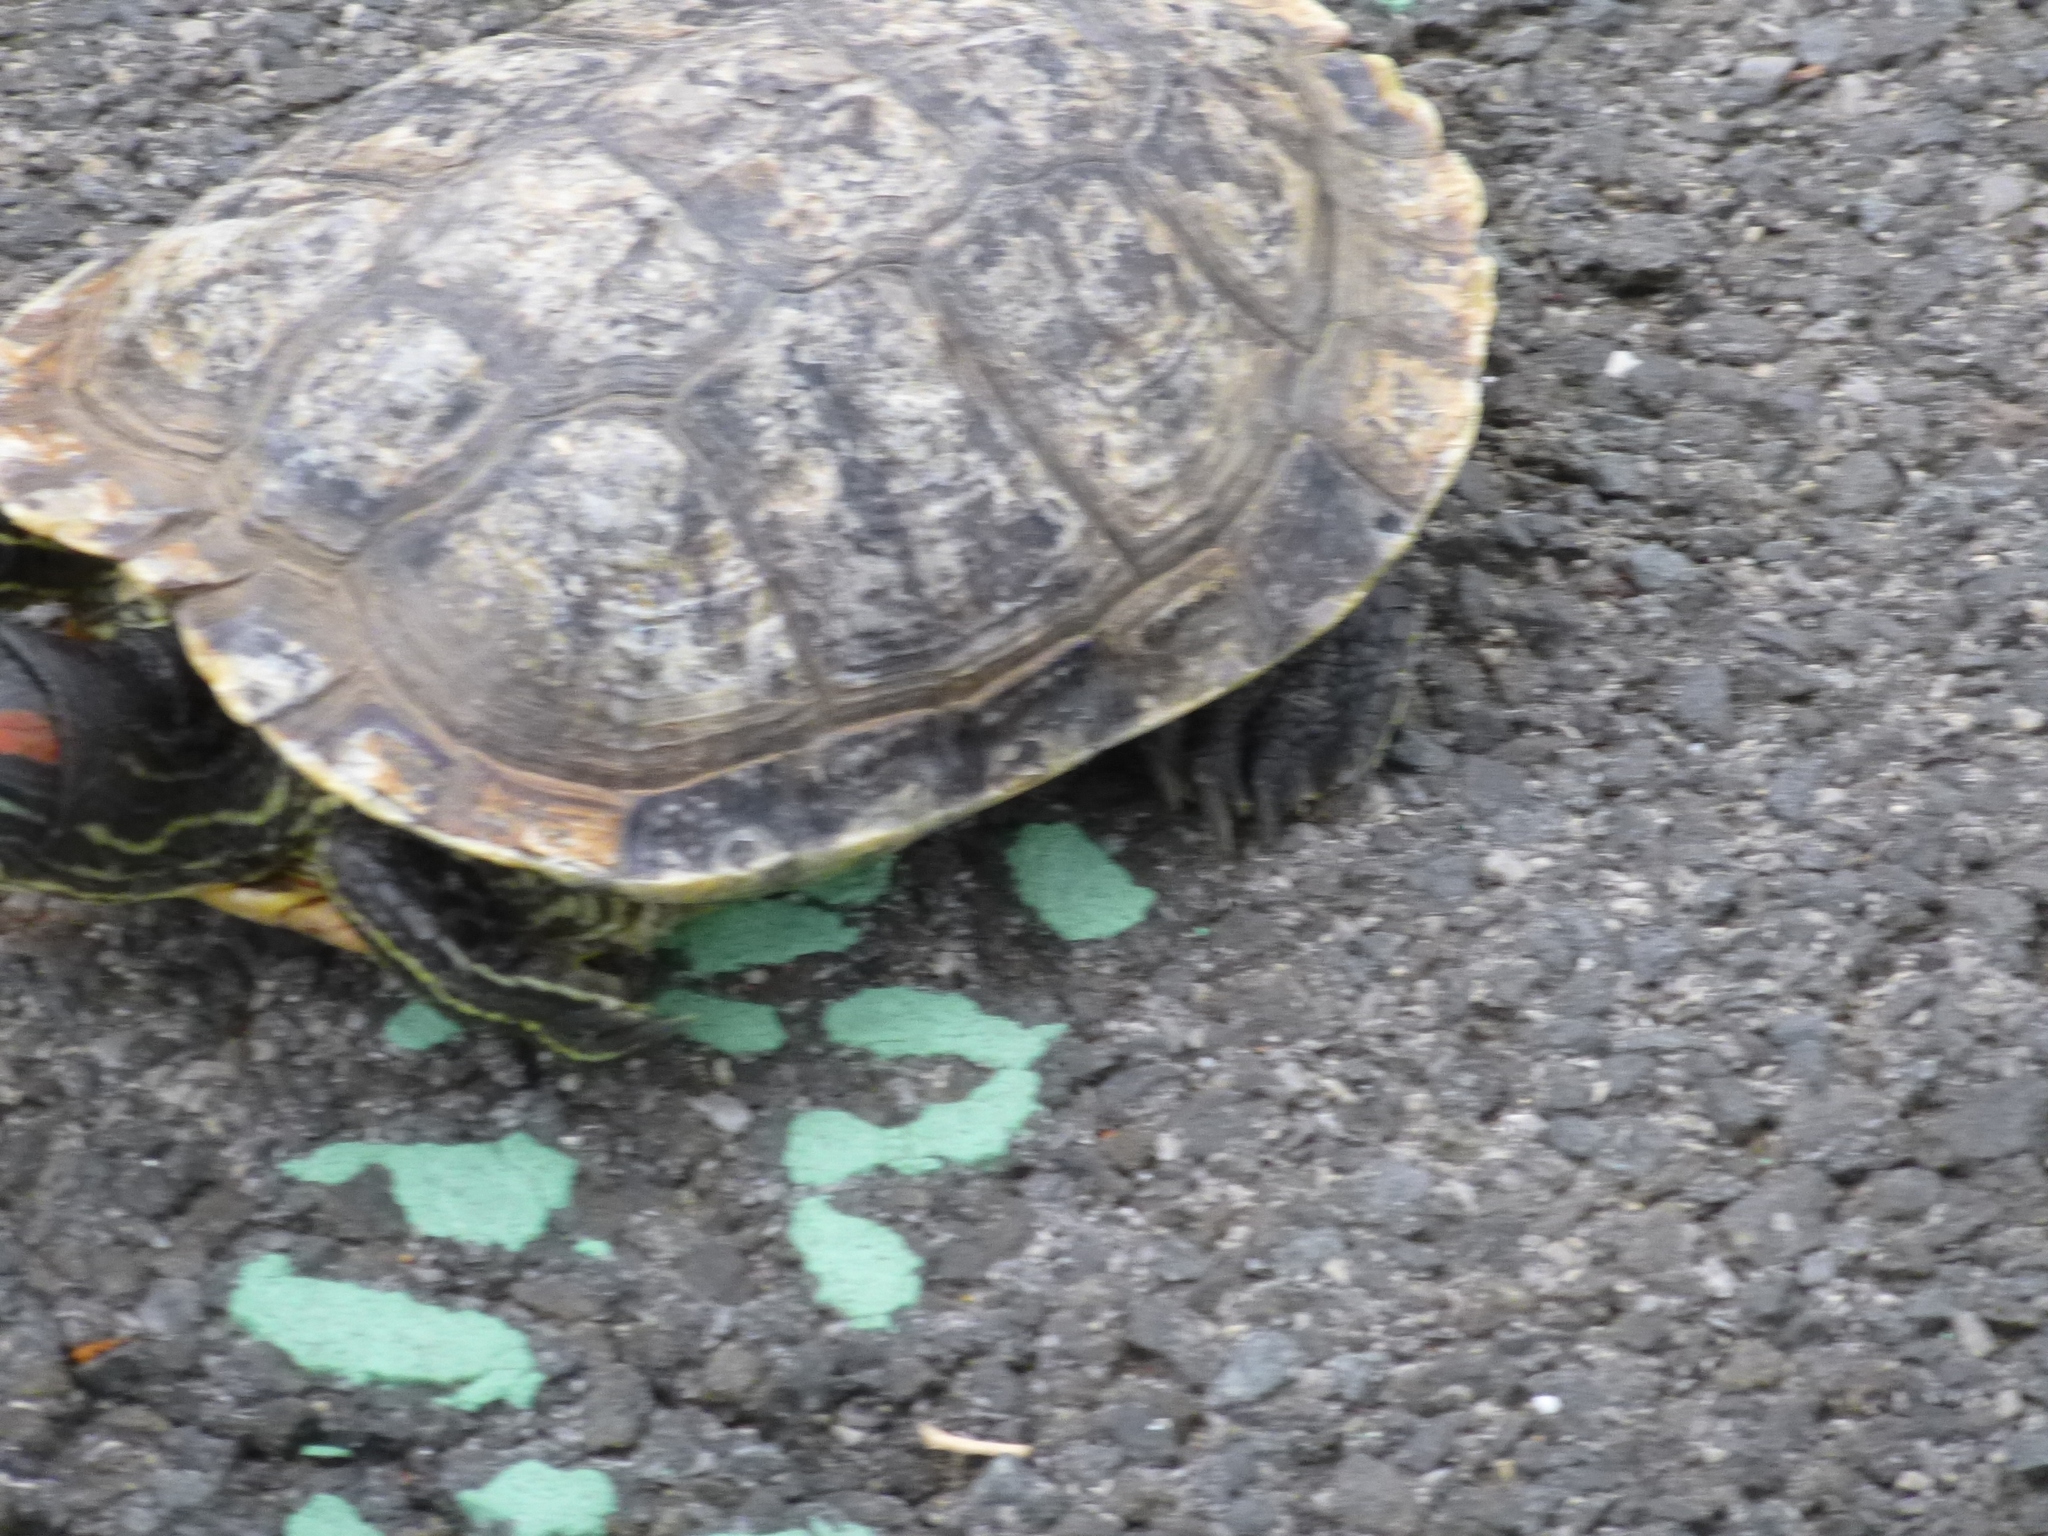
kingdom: Animalia
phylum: Chordata
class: Testudines
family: Emydidae
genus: Trachemys
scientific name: Trachemys scripta
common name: Slider
